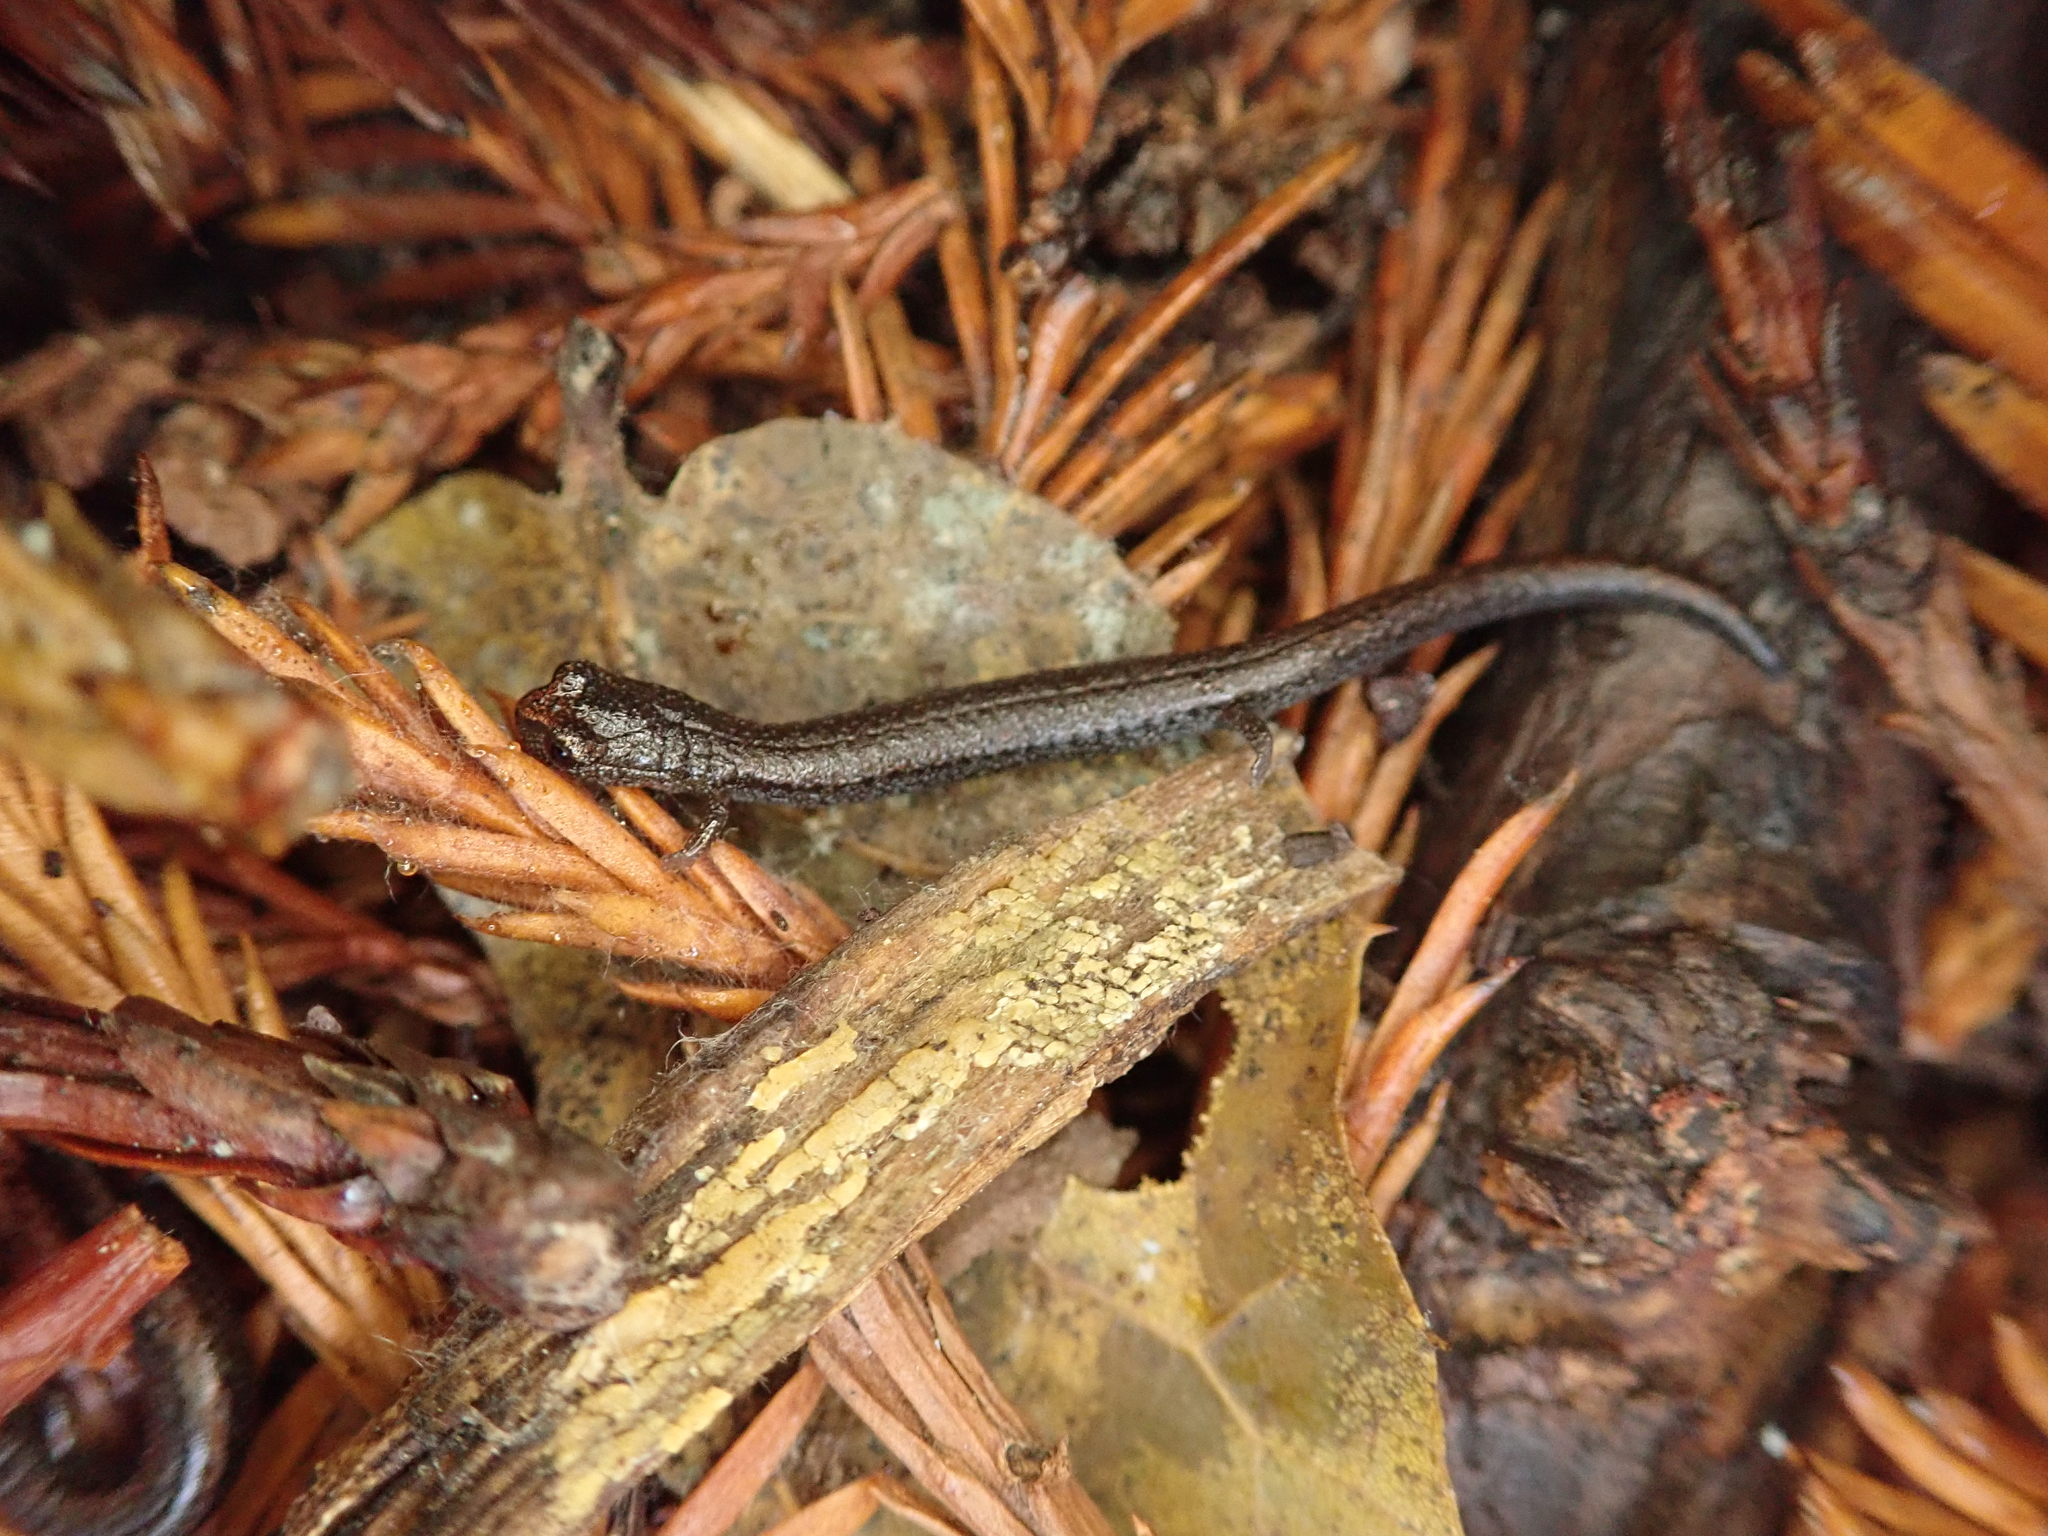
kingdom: Animalia
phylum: Chordata
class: Amphibia
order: Caudata
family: Plethodontidae
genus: Batrachoseps
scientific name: Batrachoseps attenuatus
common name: California slender salamander
